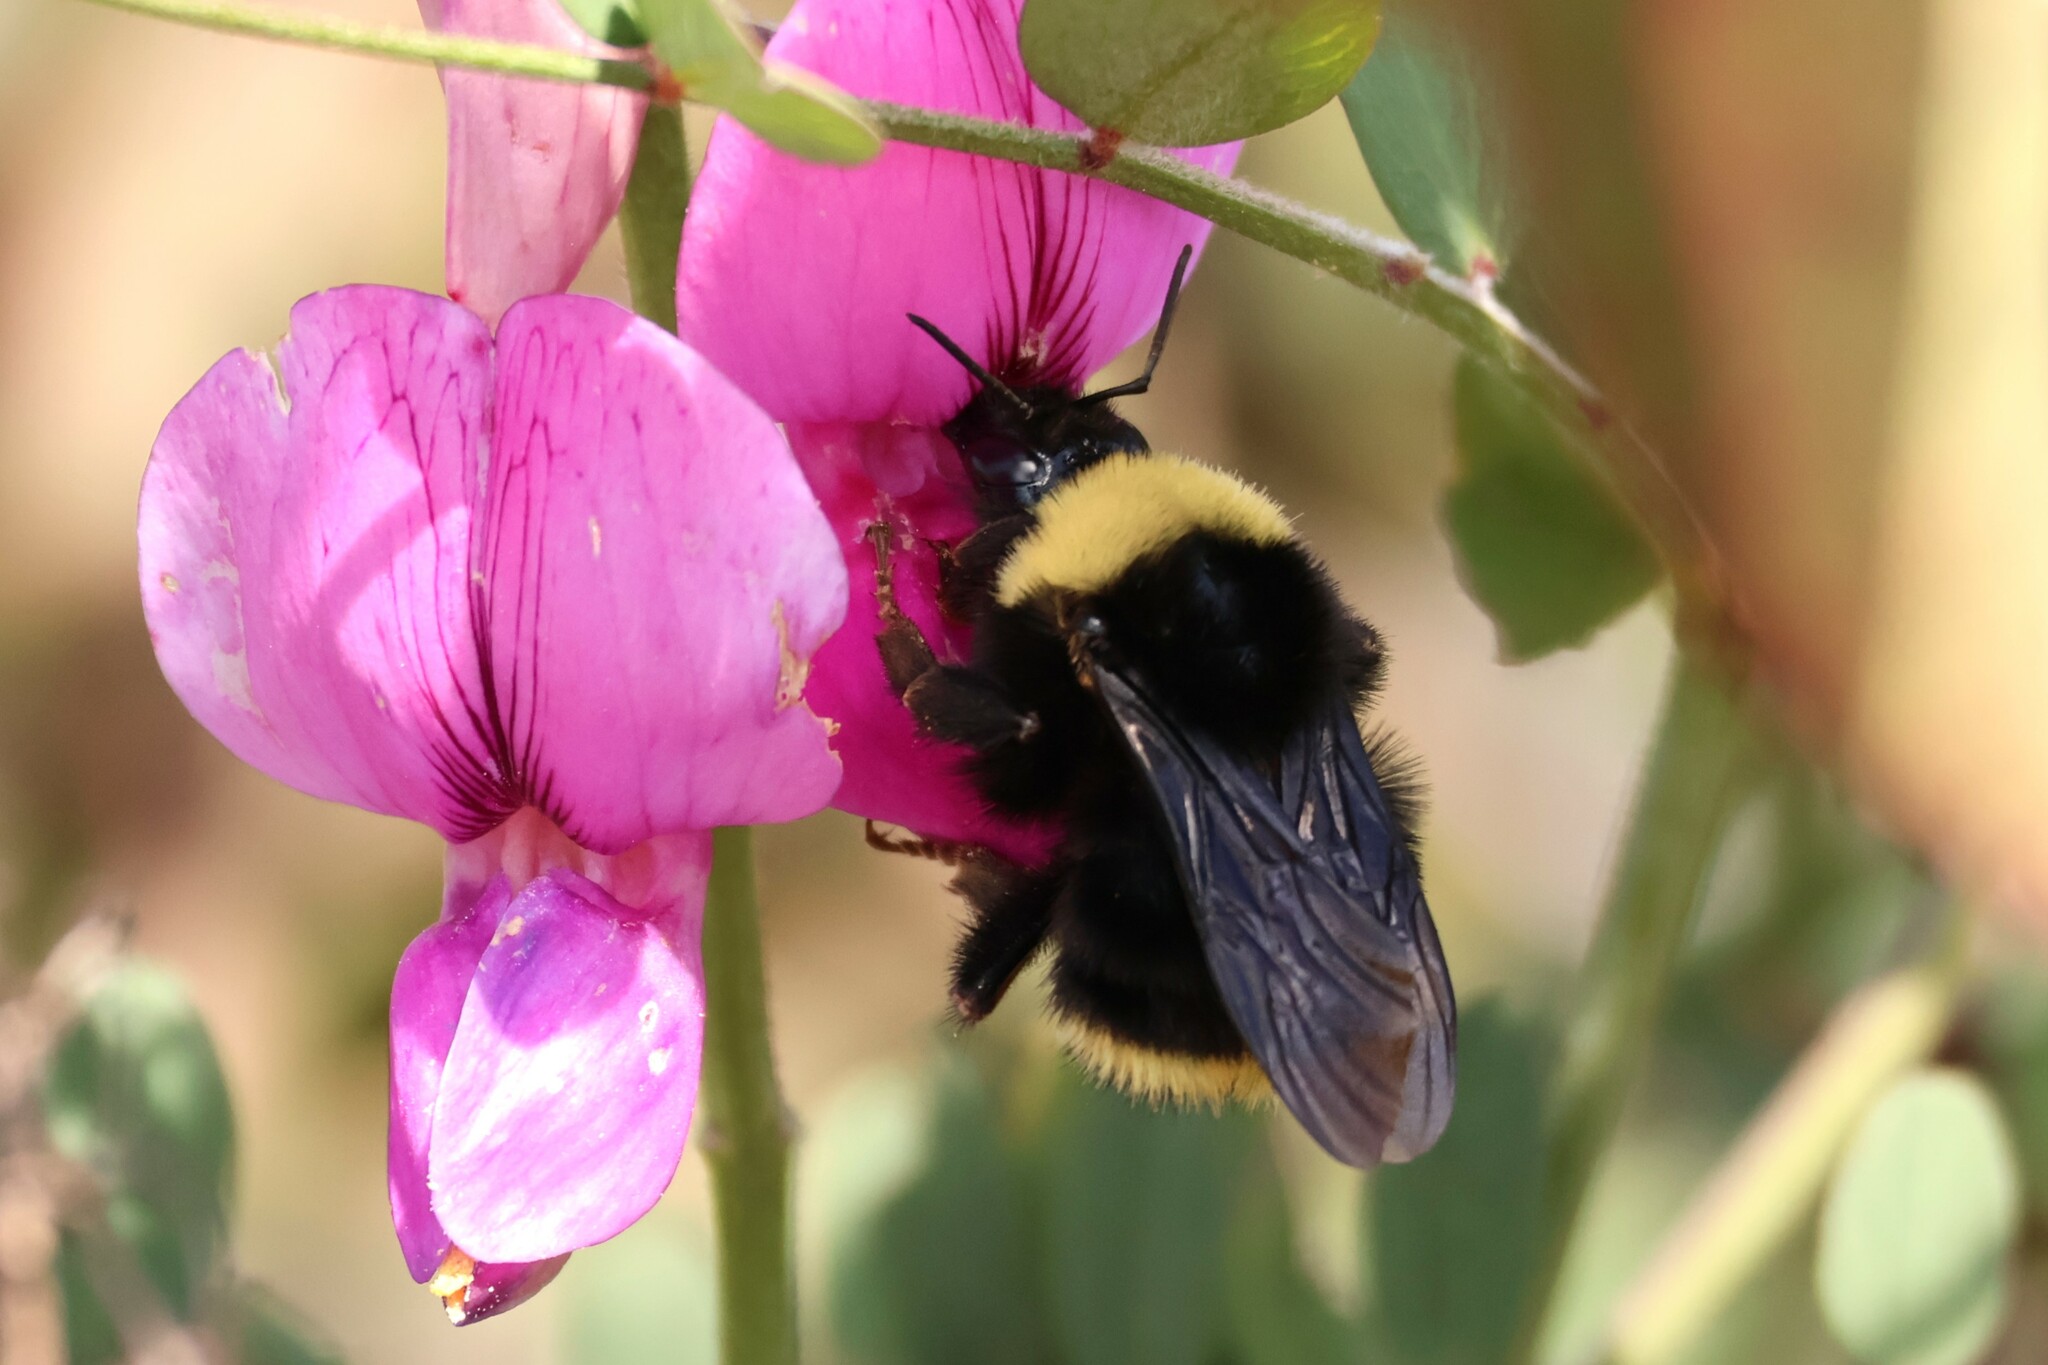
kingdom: Animalia
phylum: Arthropoda
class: Insecta
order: Hymenoptera
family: Apidae
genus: Bombus
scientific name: Bombus californicus
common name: California bumble bee
